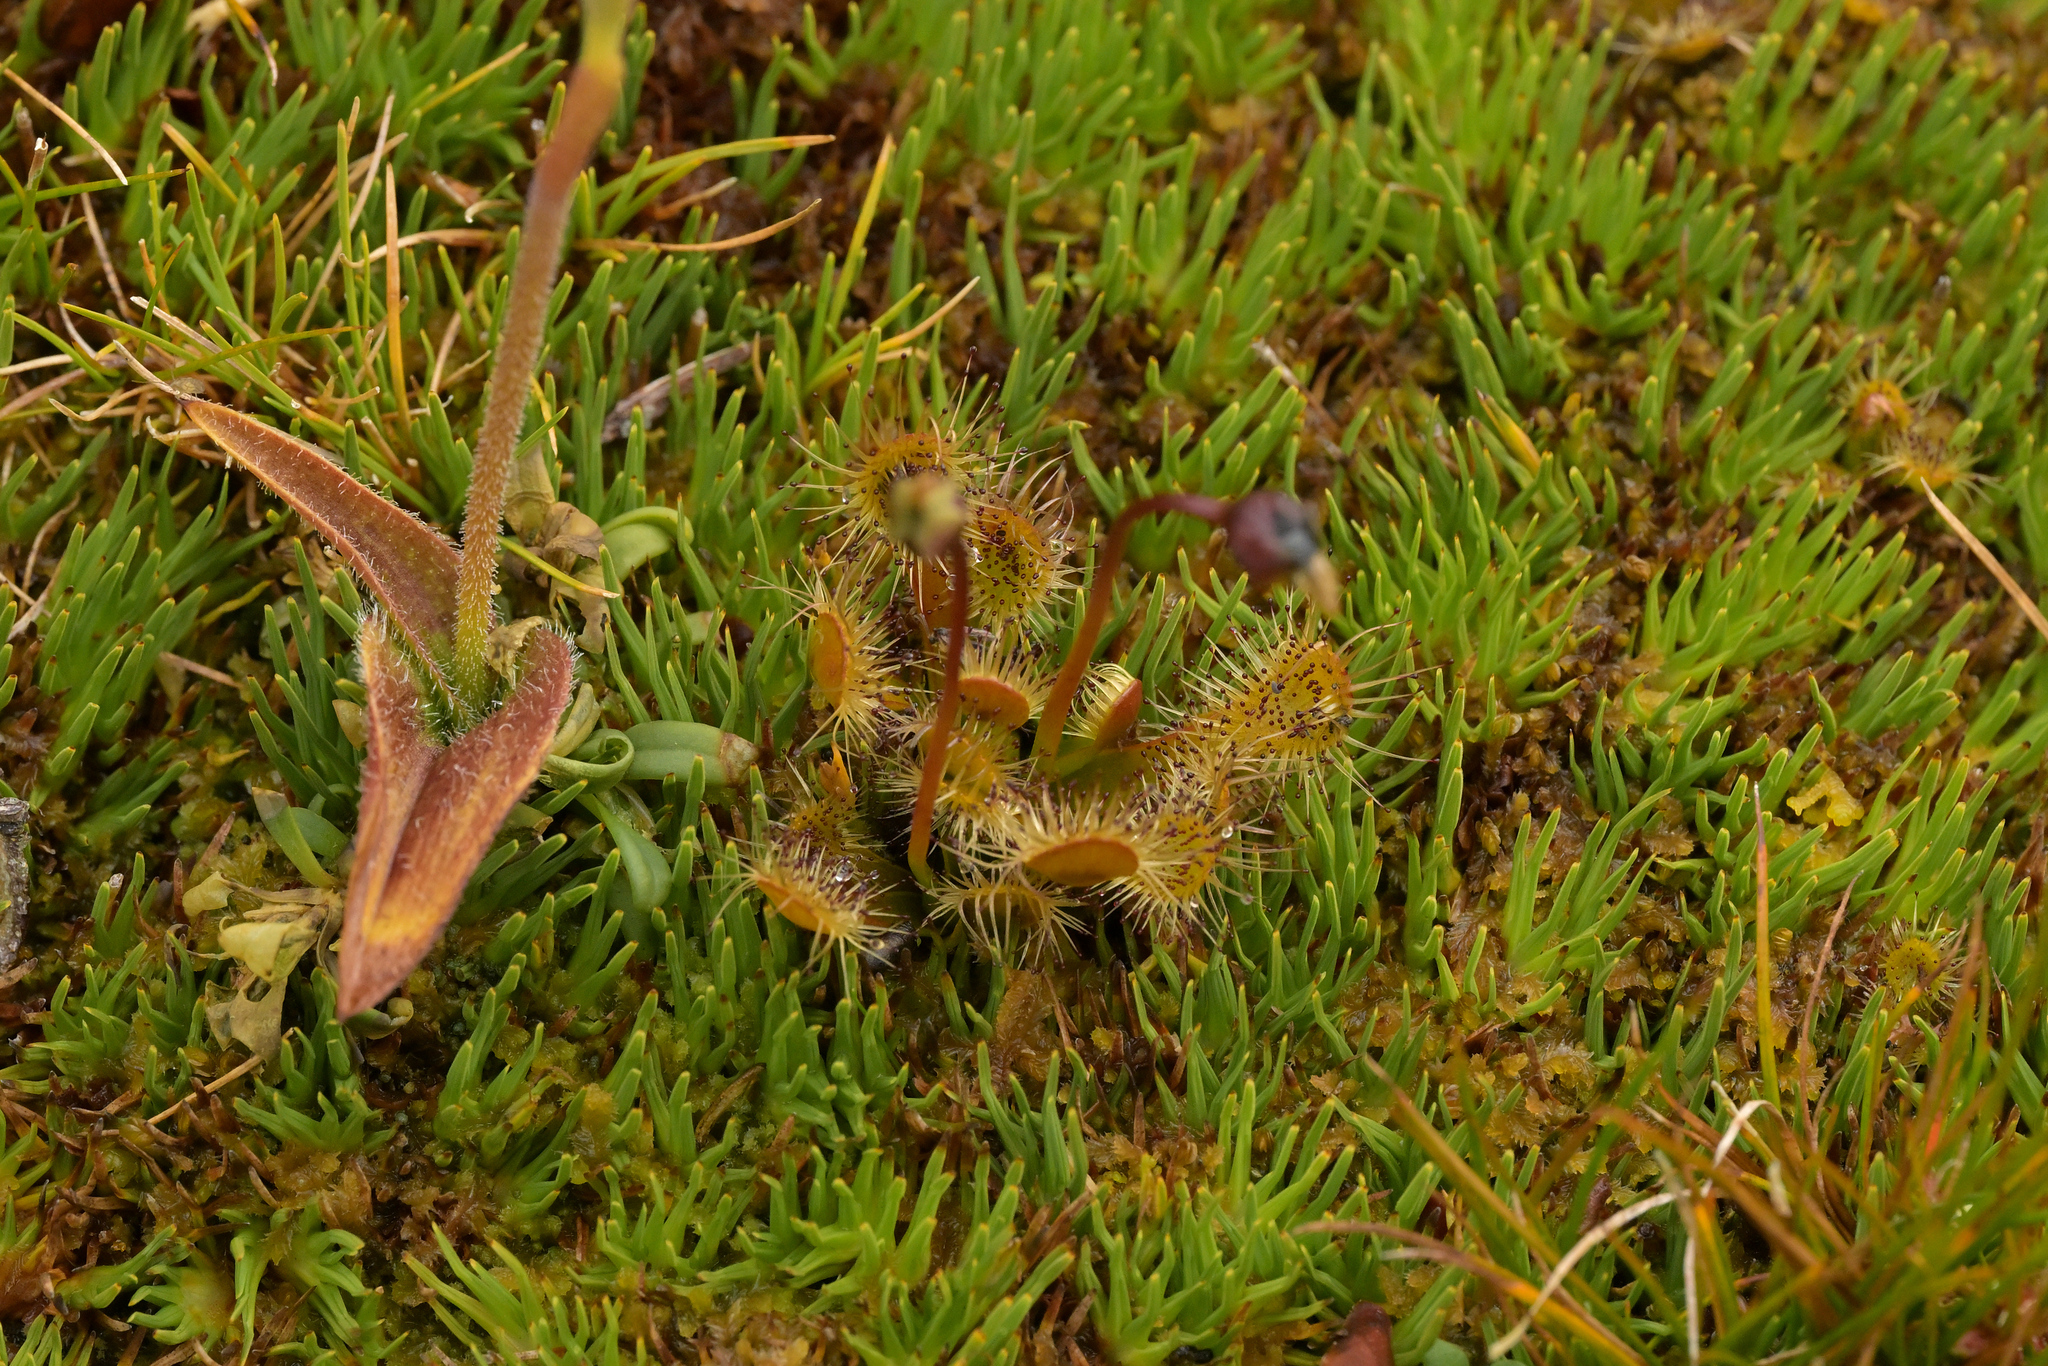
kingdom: Plantae
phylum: Tracheophyta
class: Magnoliopsida
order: Caryophyllales
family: Droseraceae
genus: Drosera
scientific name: Drosera stenopetala
